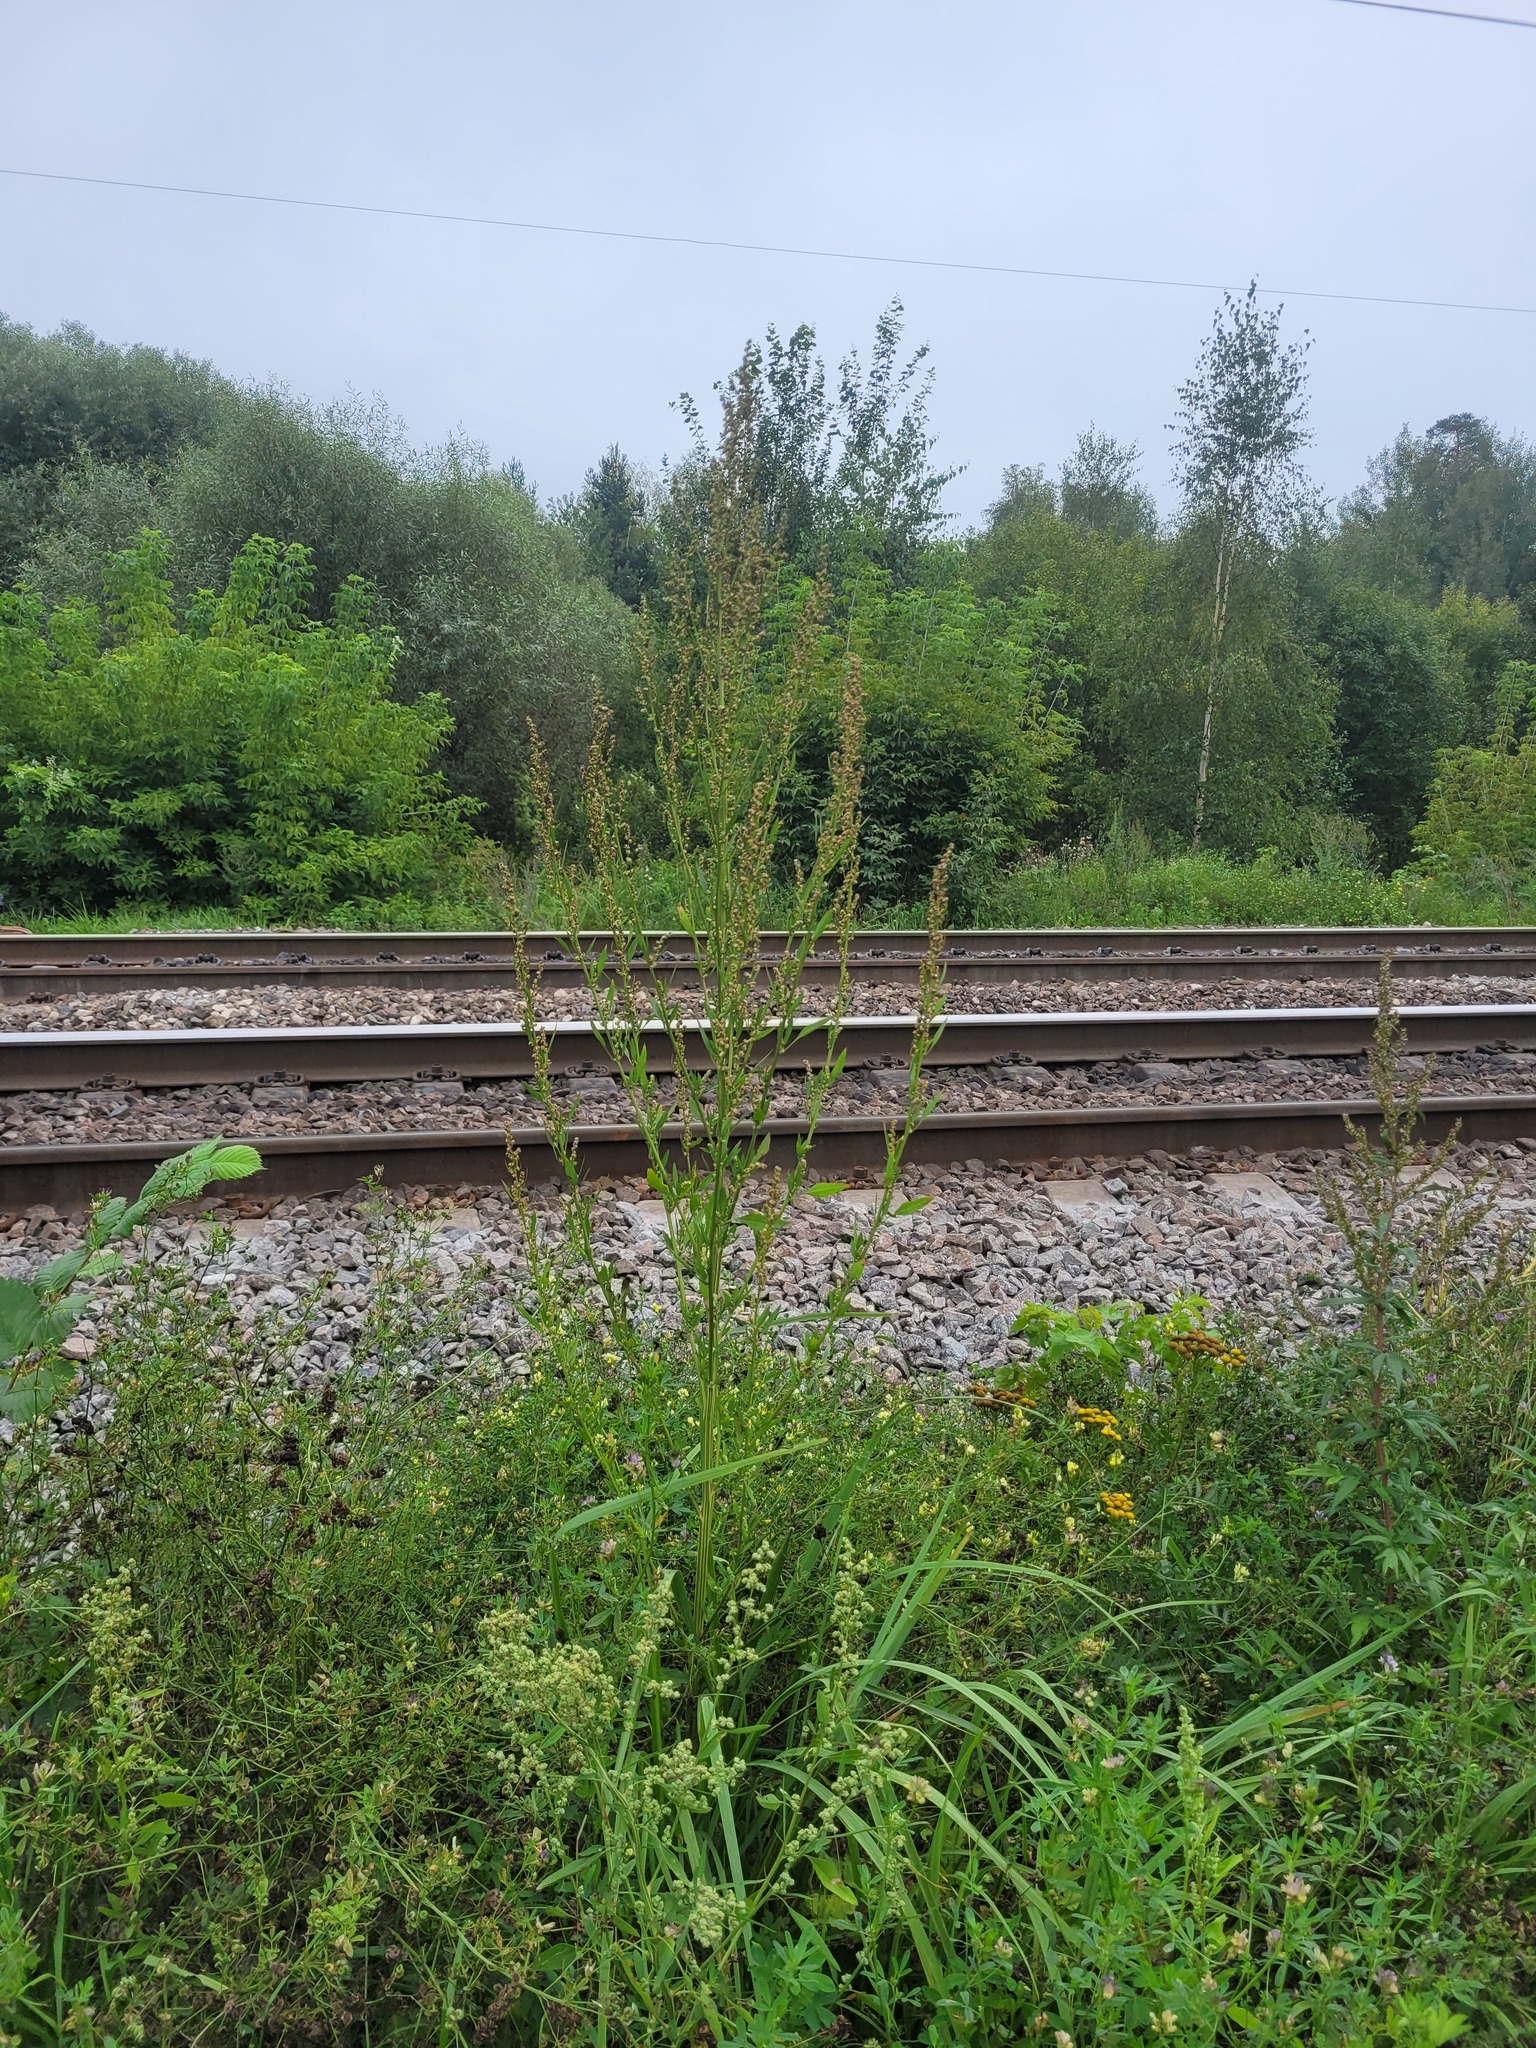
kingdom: Plantae
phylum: Tracheophyta
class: Magnoliopsida
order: Caryophyllales
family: Amaranthaceae
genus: Chenopodium
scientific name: Chenopodium album
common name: Fat-hen
